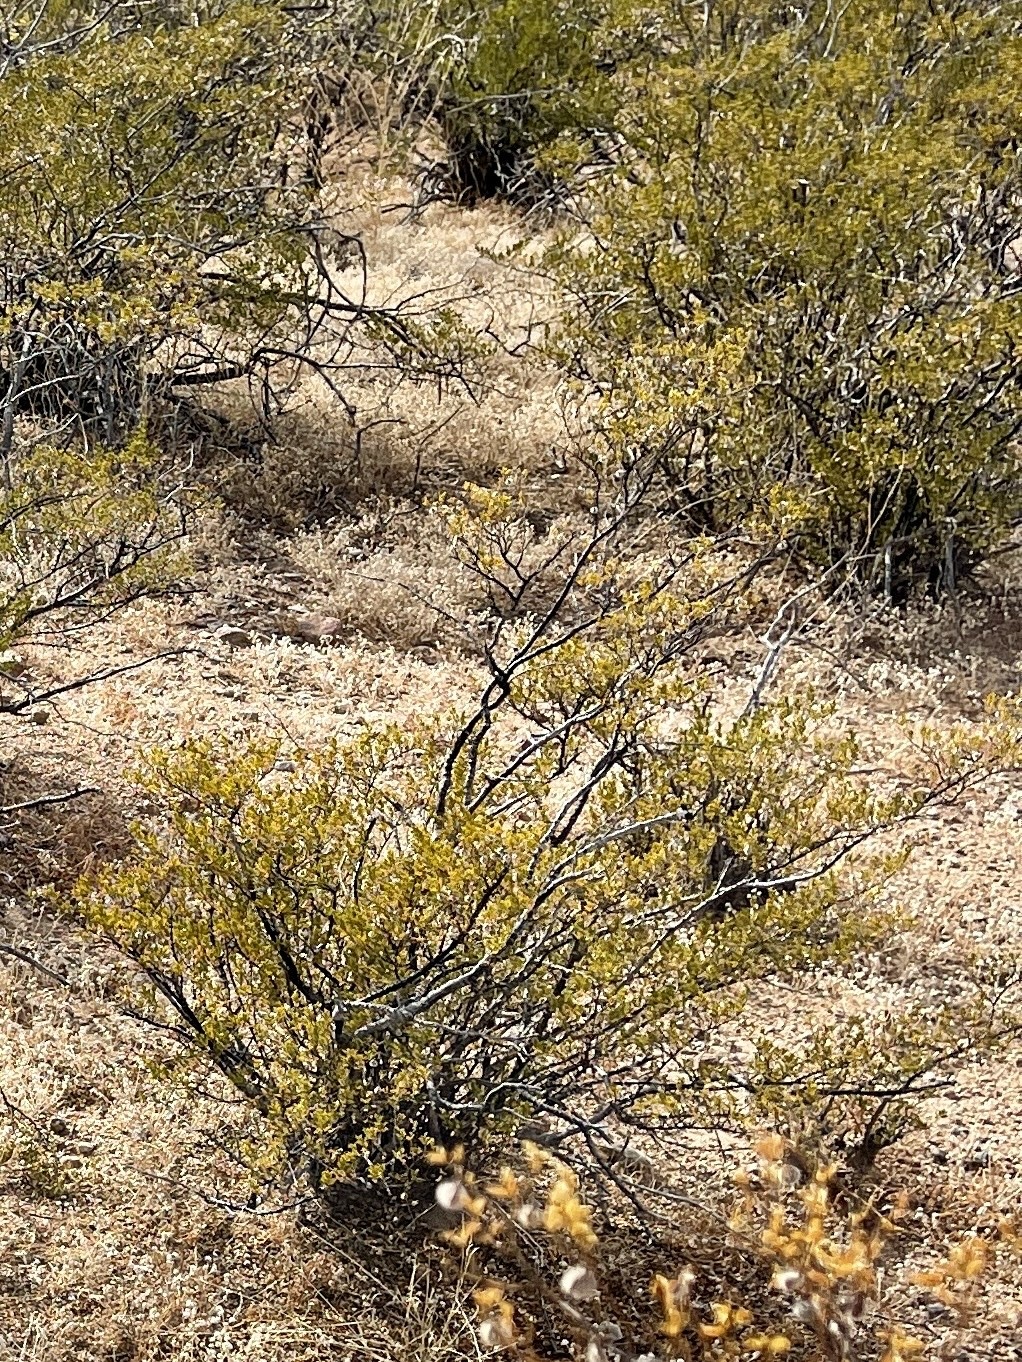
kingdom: Plantae
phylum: Tracheophyta
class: Magnoliopsida
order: Zygophyllales
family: Zygophyllaceae
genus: Larrea
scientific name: Larrea tridentata
